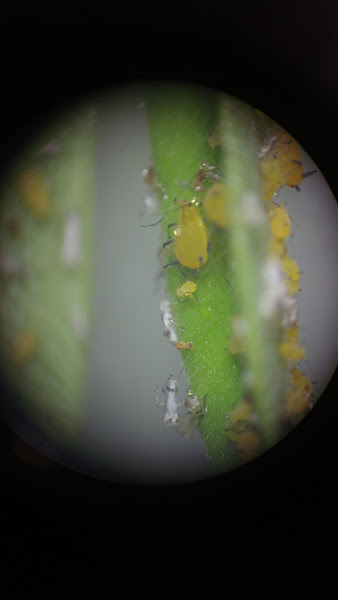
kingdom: Animalia
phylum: Arthropoda
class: Insecta
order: Hemiptera
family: Aphididae
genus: Aphis
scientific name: Aphis nerii
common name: Oleander aphid
